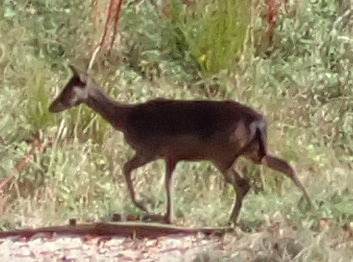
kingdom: Animalia
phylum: Chordata
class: Mammalia
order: Artiodactyla
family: Cervidae
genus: Dama
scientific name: Dama dama
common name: Fallow deer
